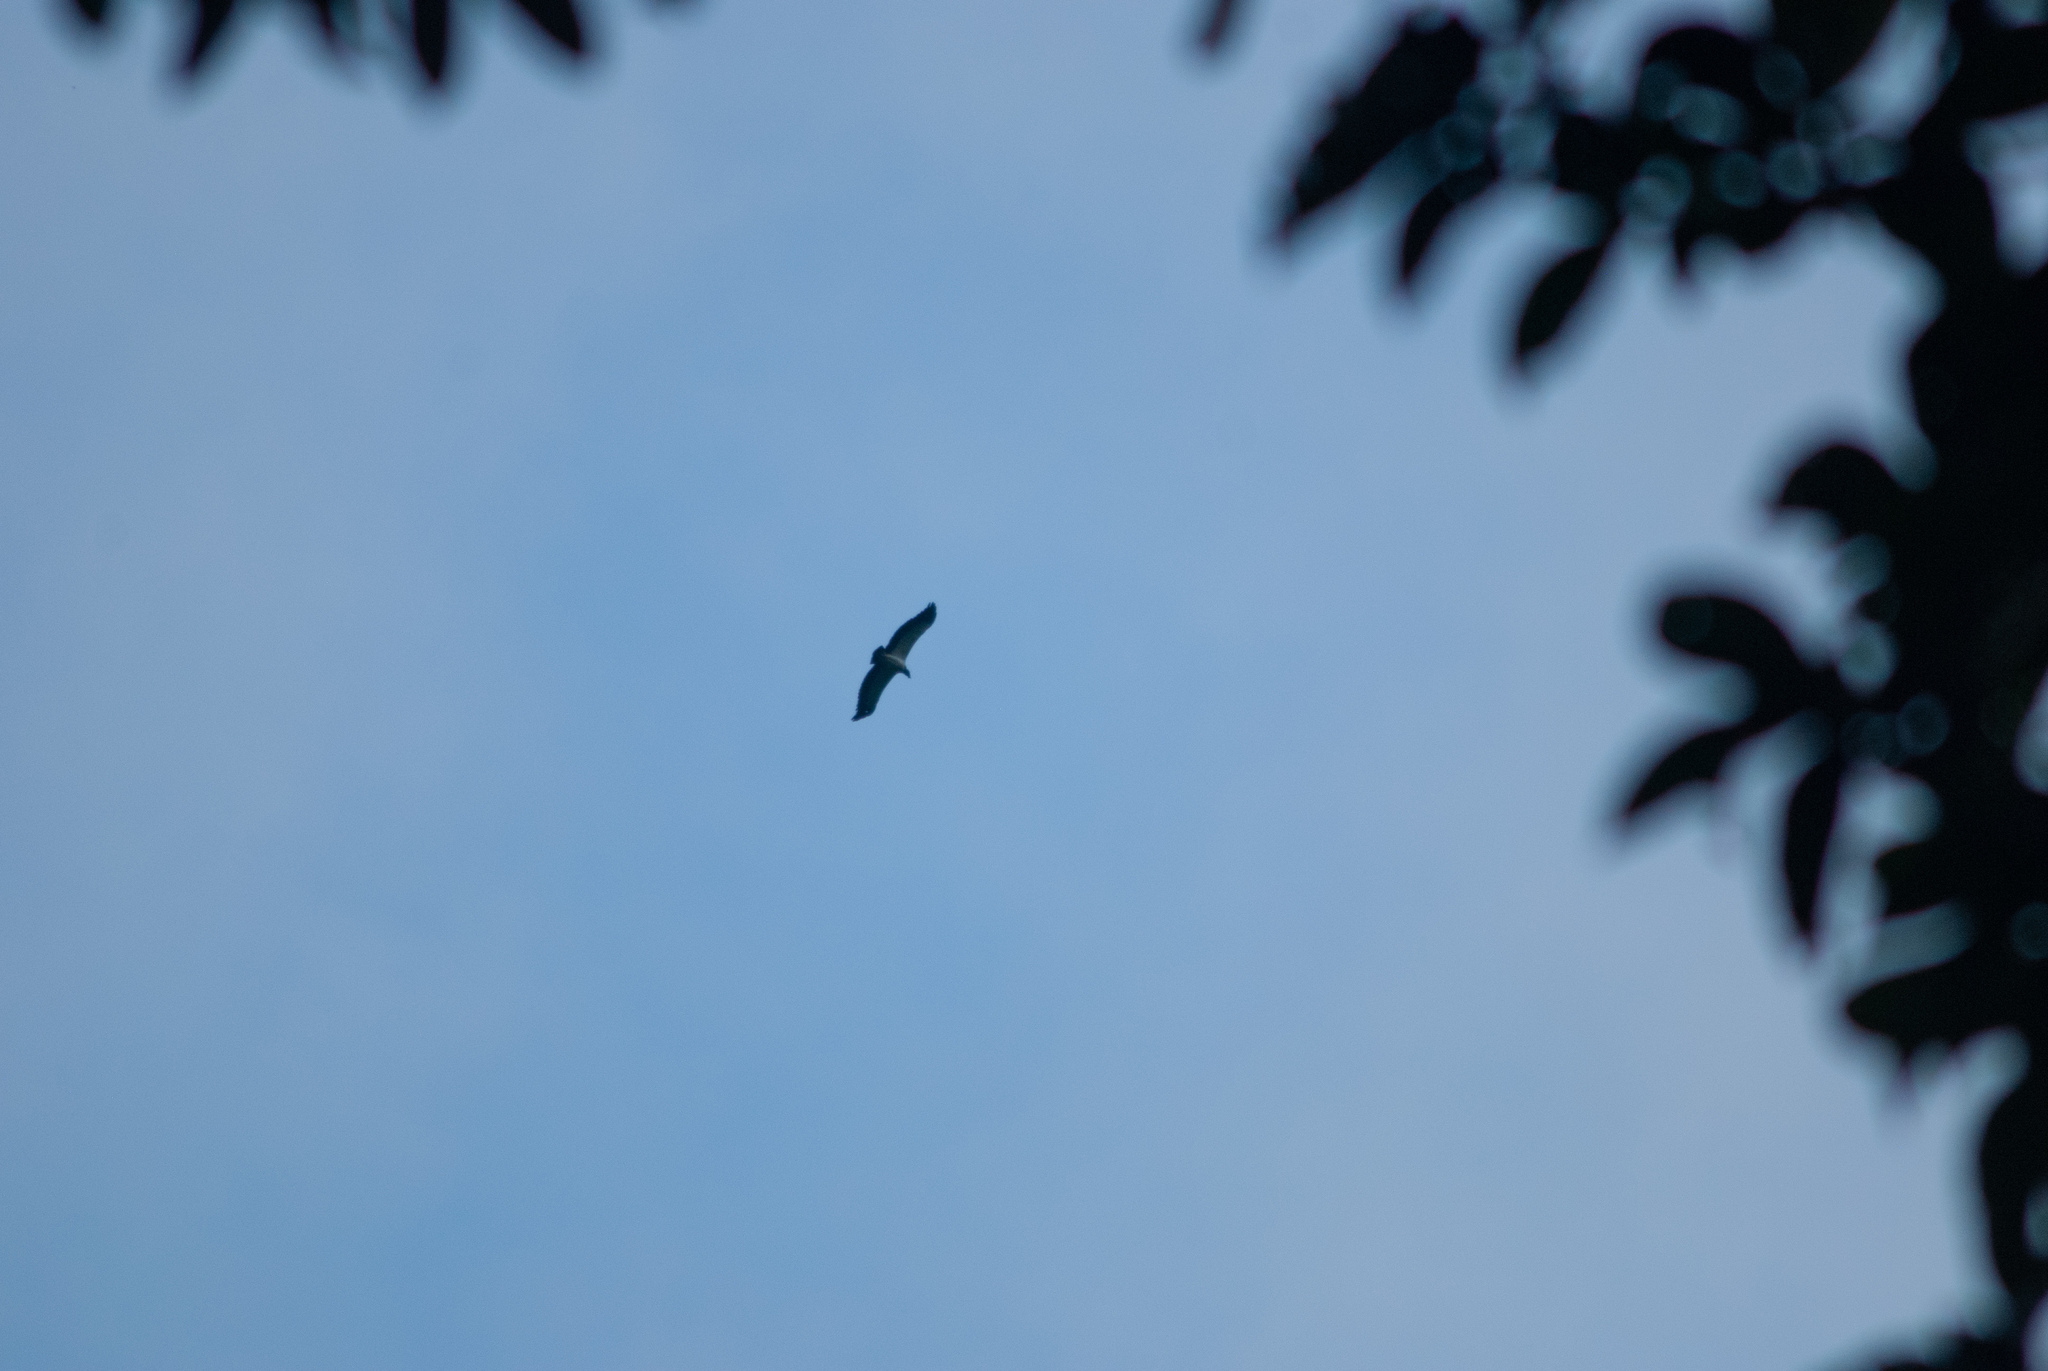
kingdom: Animalia
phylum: Chordata
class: Aves
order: Accipitriformes
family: Cathartidae
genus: Sarcoramphus
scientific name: Sarcoramphus papa
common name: King vulture
